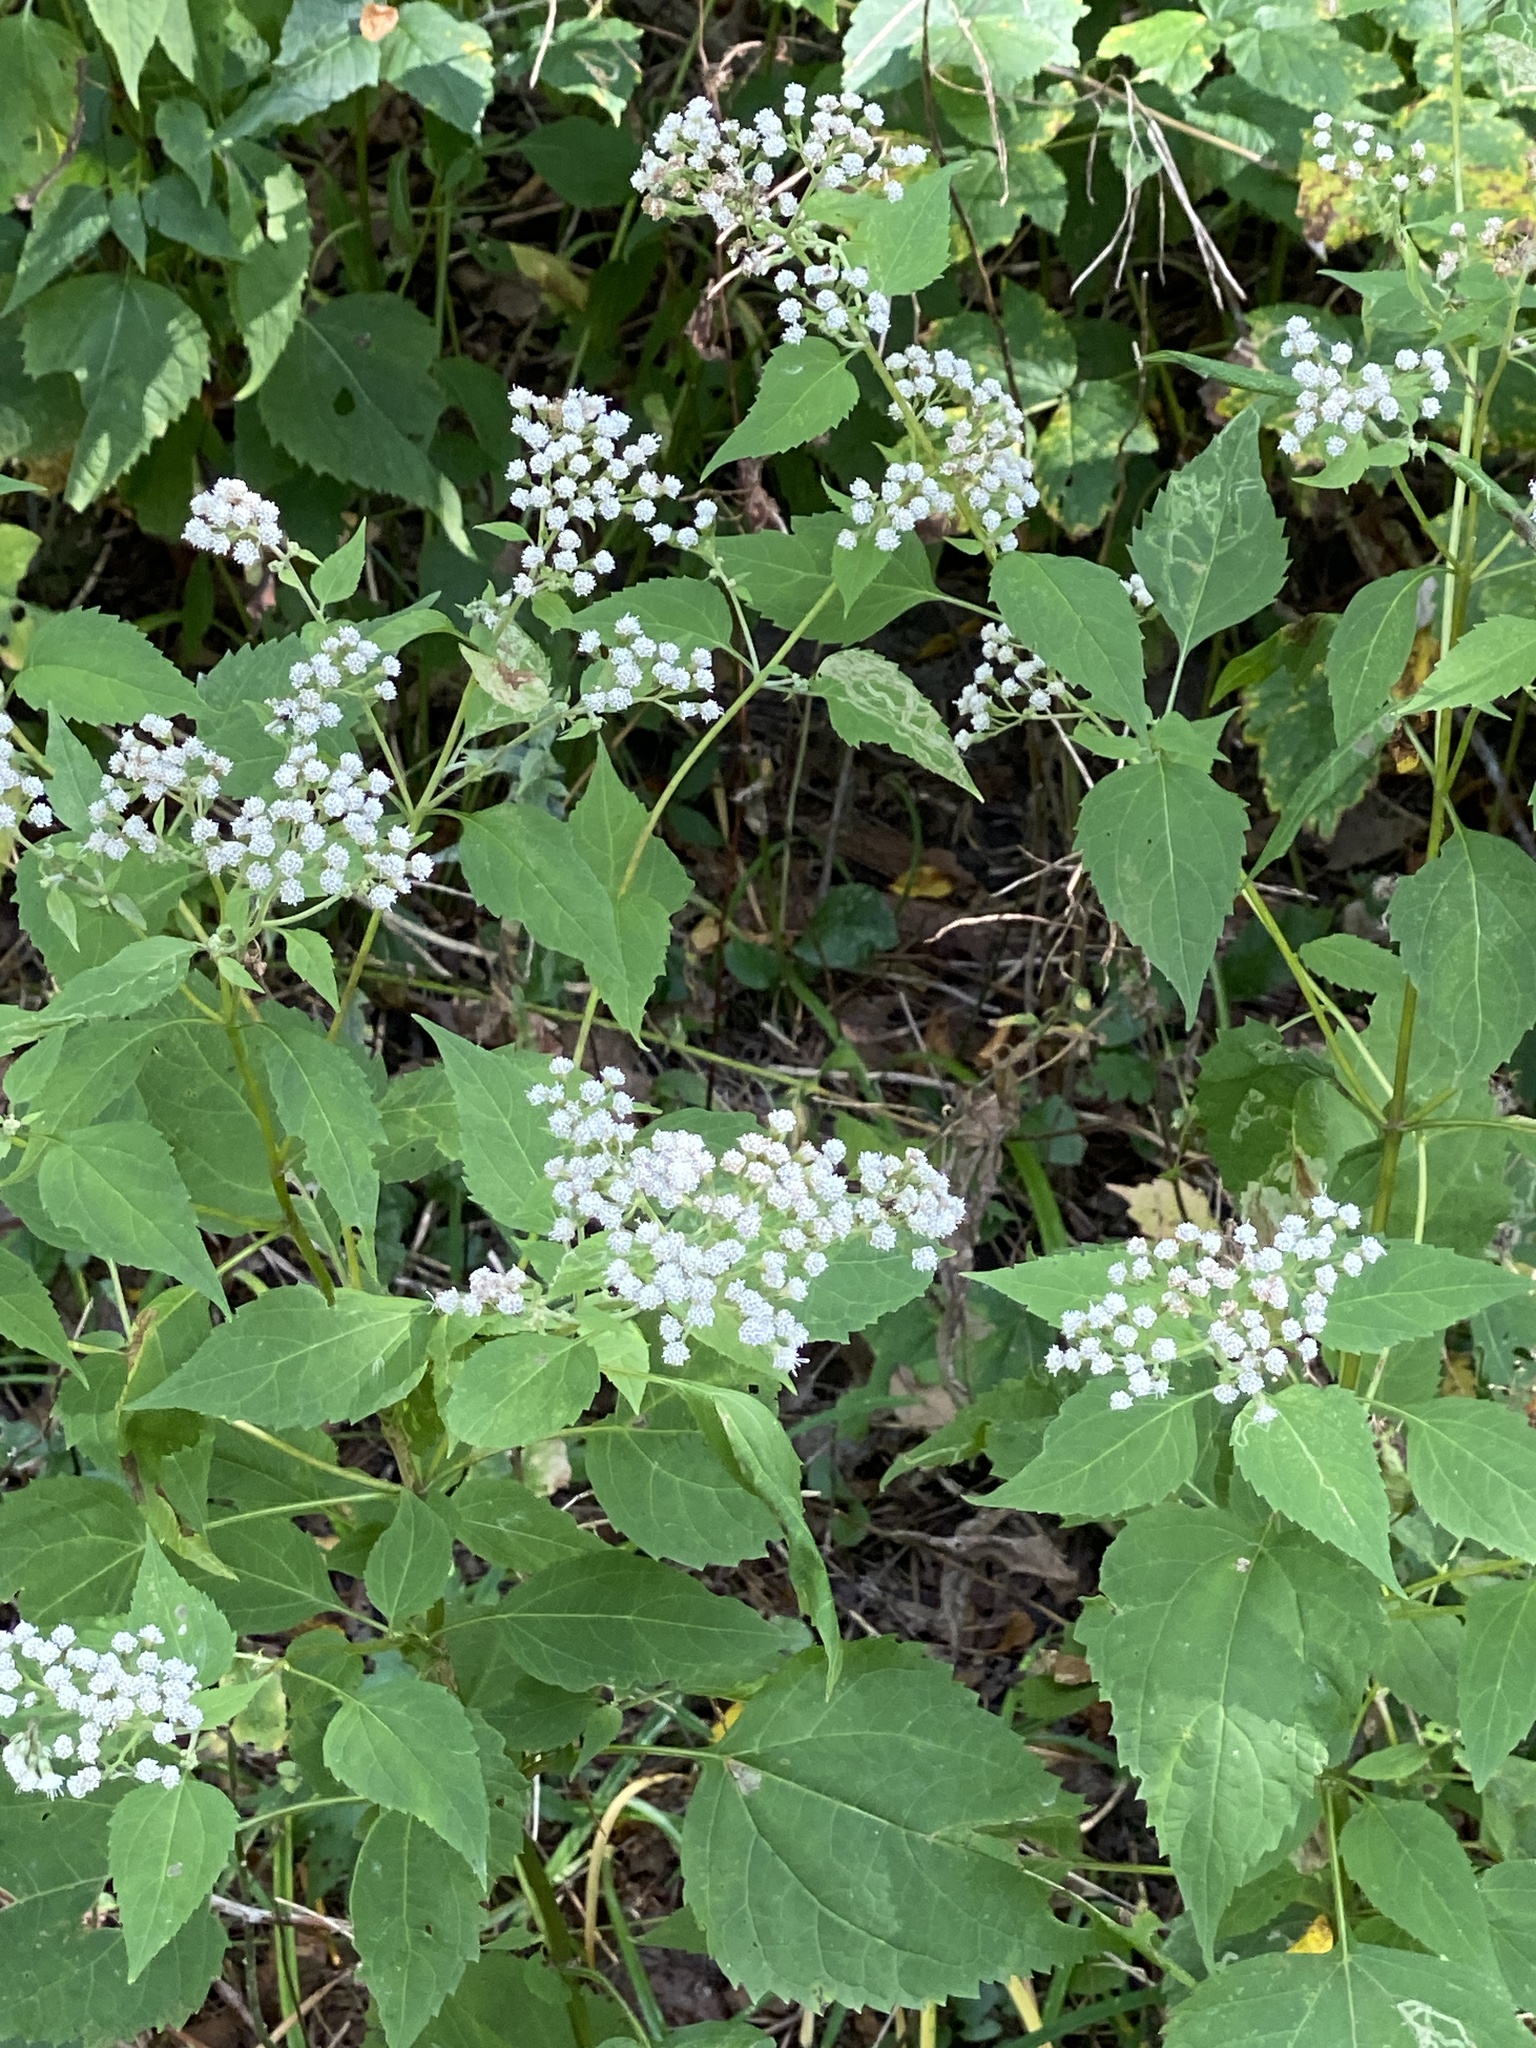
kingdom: Plantae
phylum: Tracheophyta
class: Magnoliopsida
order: Asterales
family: Asteraceae
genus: Ageratina
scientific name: Ageratina altissima
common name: White snakeroot
